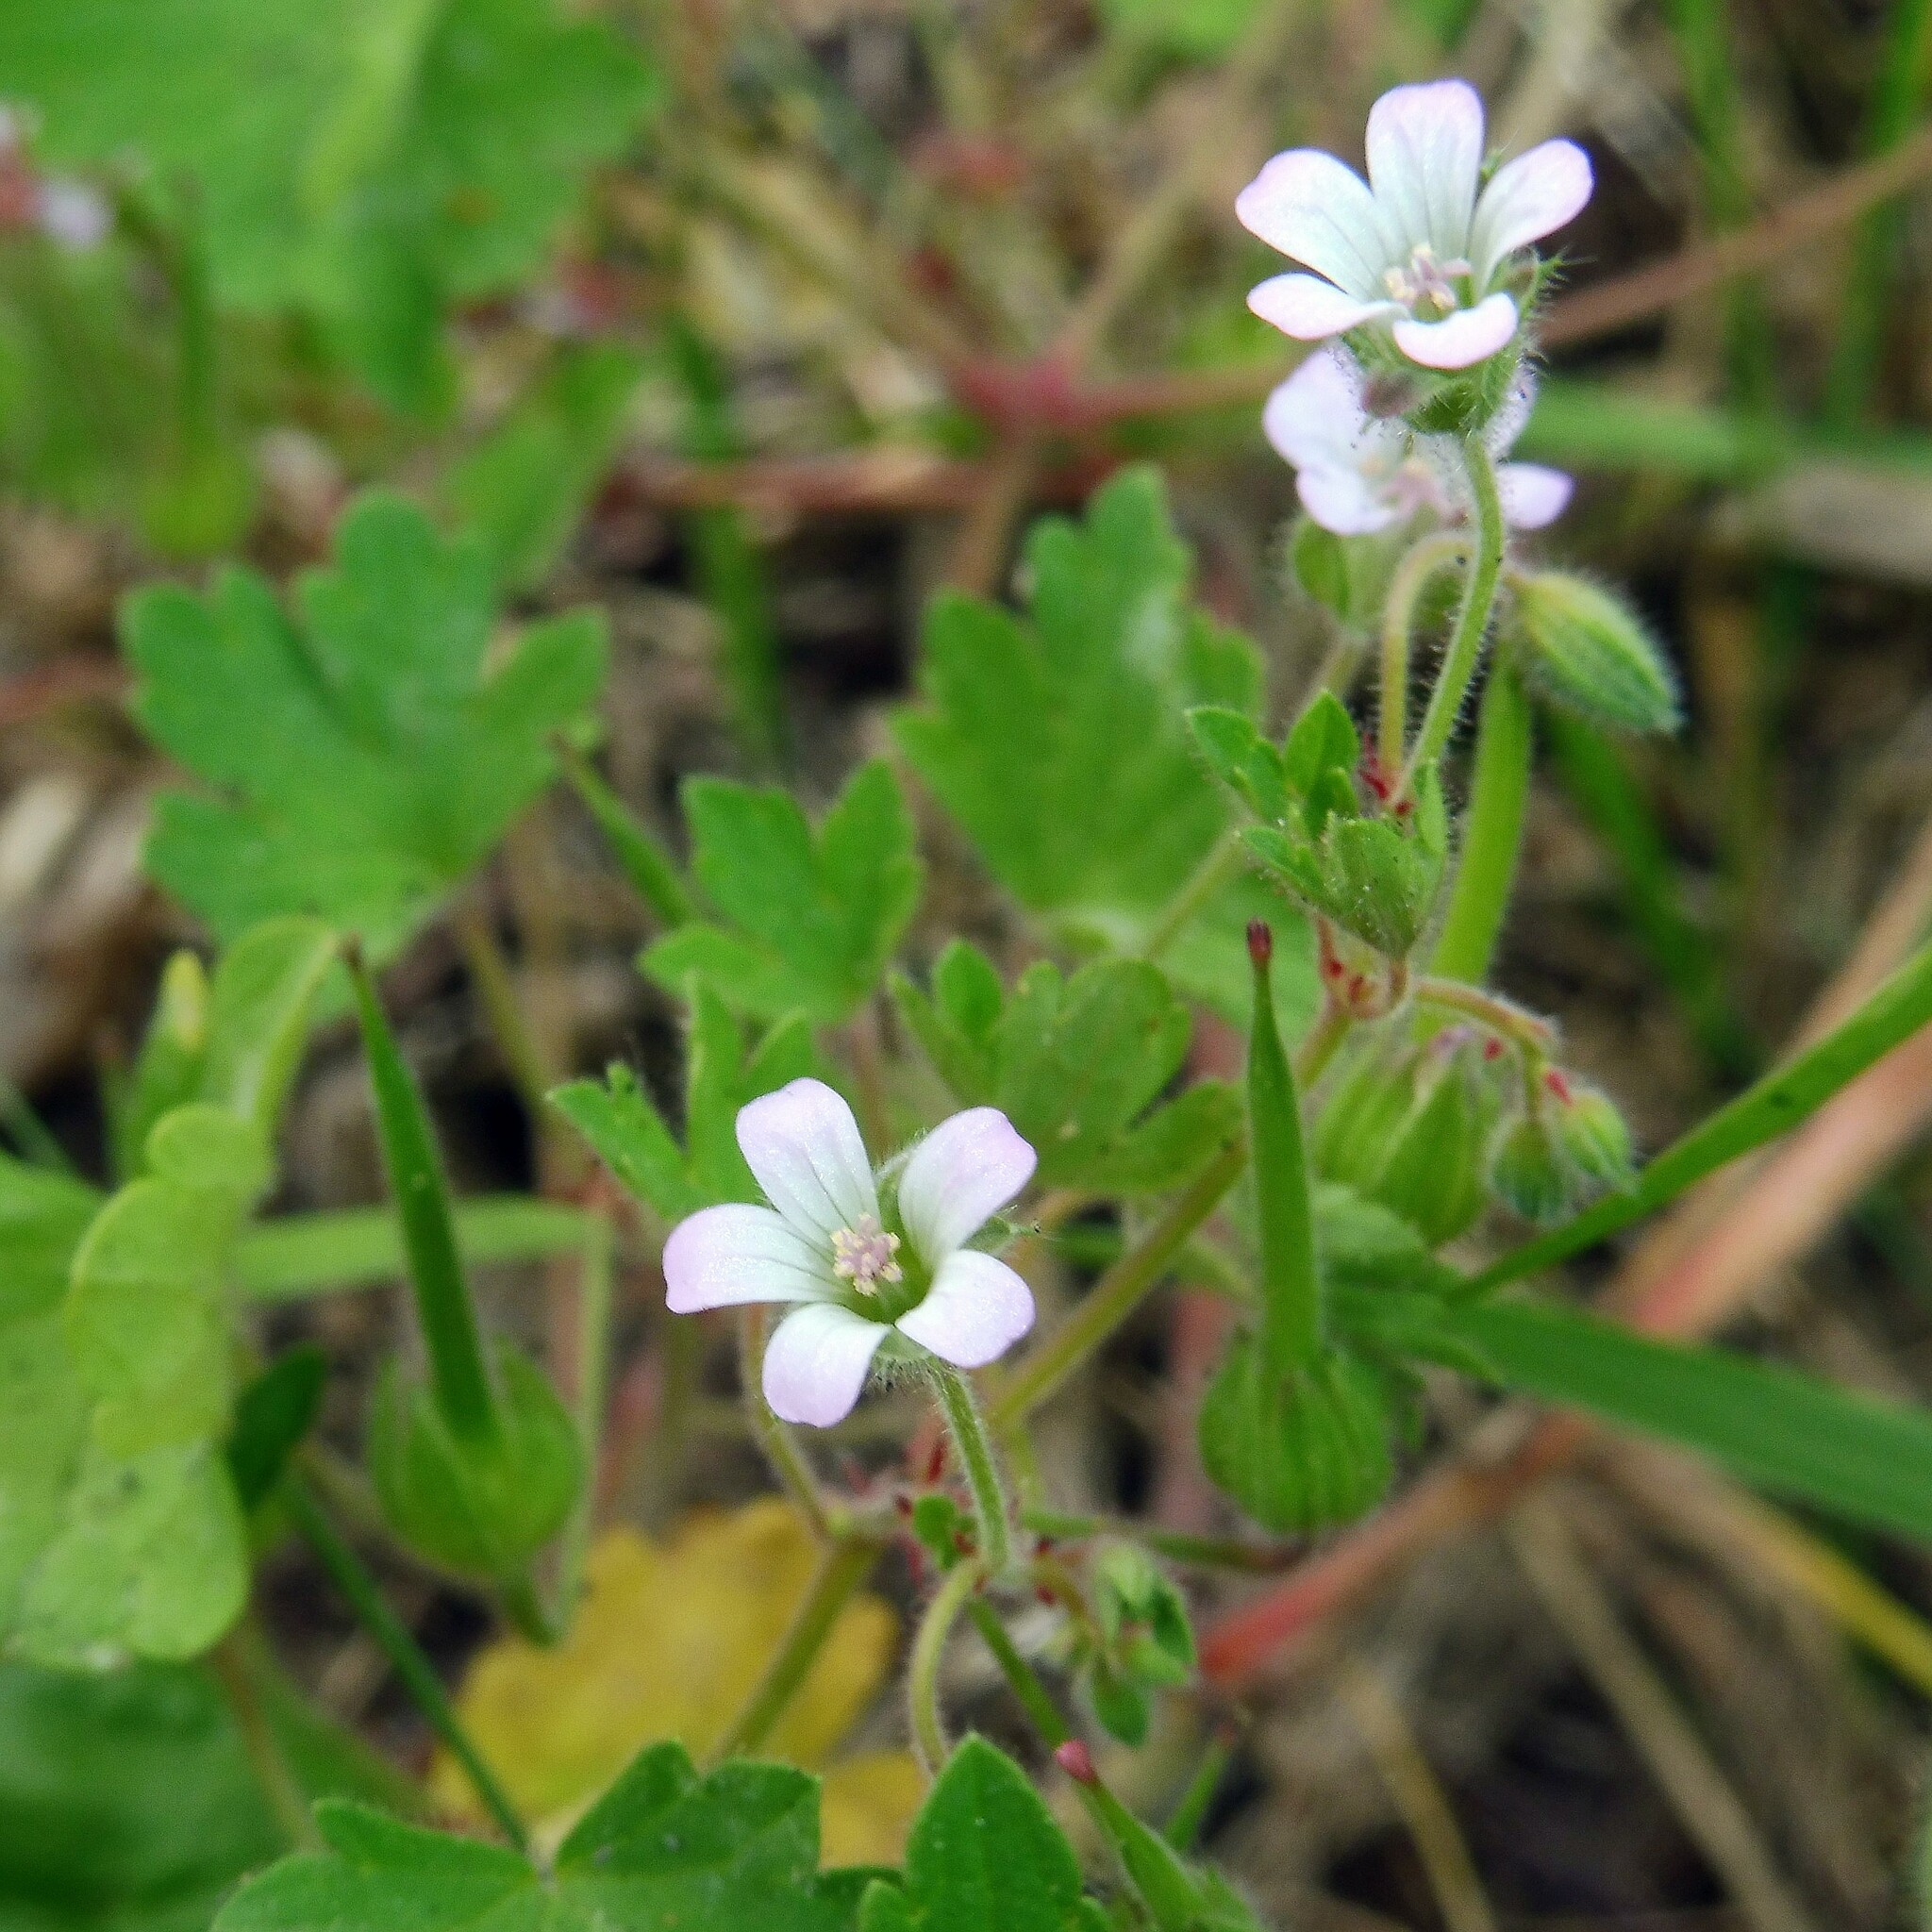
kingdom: Plantae
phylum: Tracheophyta
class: Magnoliopsida
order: Geraniales
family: Geraniaceae
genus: Geranium
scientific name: Geranium rotundifolium
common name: Round-leaved crane's-bill
